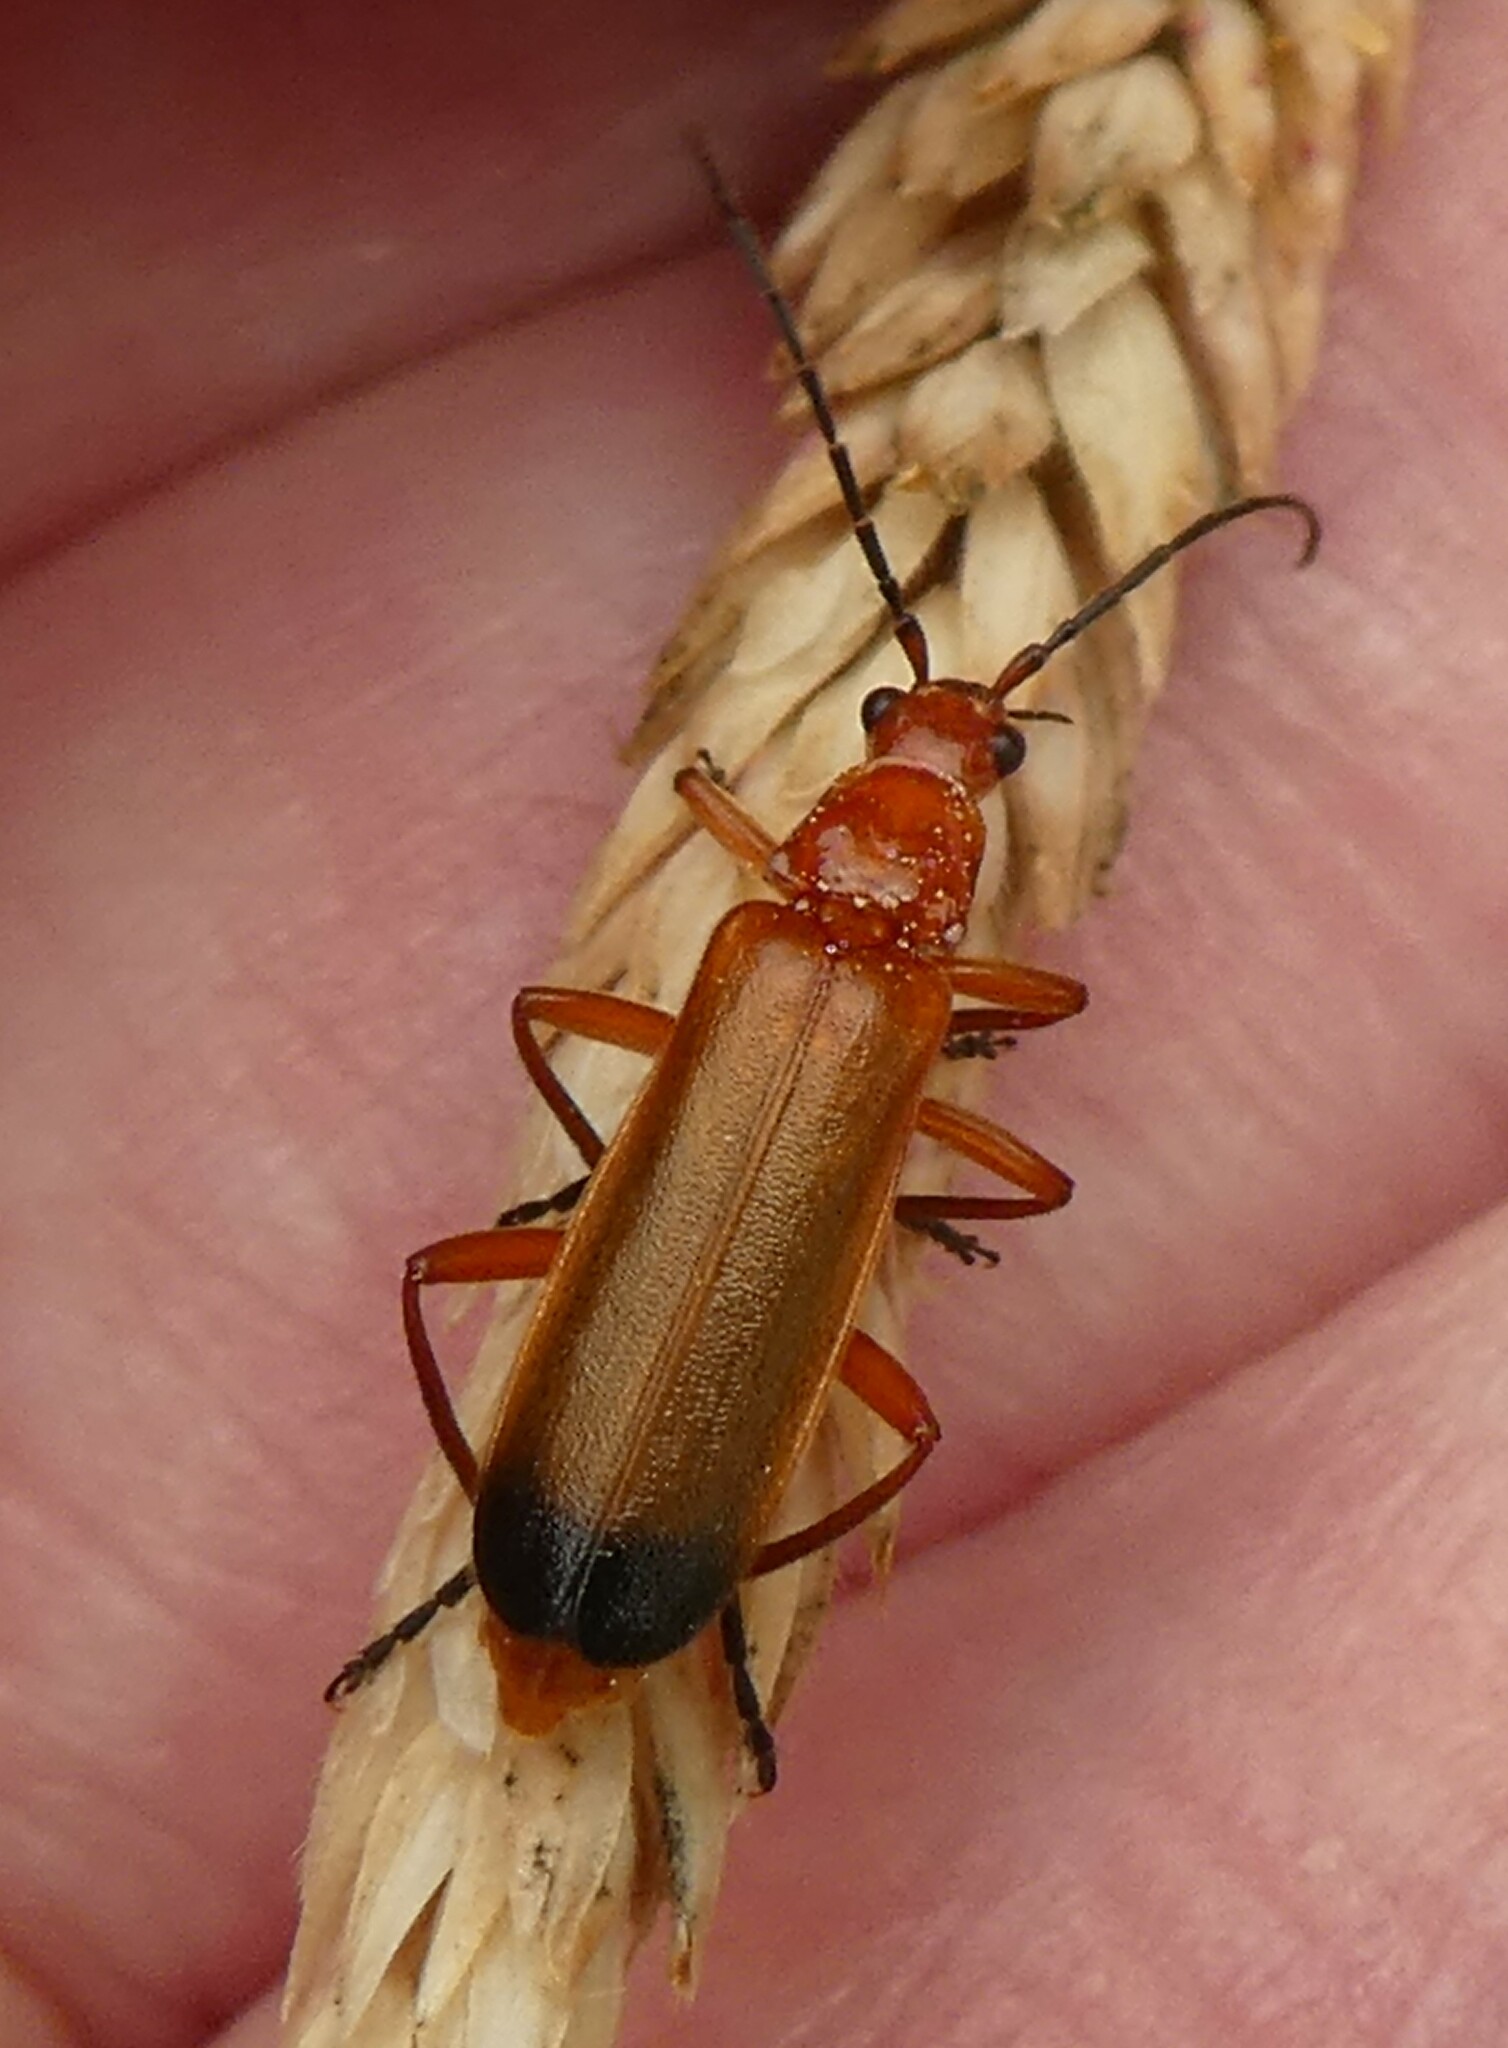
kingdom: Animalia
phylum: Arthropoda
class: Insecta
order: Coleoptera
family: Cantharidae
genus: Rhagonycha
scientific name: Rhagonycha fulva
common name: Common red soldier beetle
